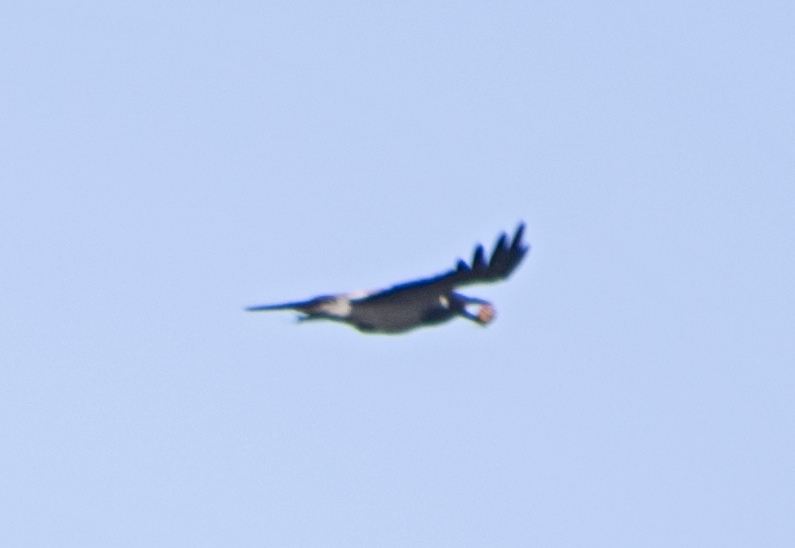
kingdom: Animalia
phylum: Chordata
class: Aves
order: Passeriformes
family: Corvidae
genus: Corvus
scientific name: Corvus cornix
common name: Hooded crow
